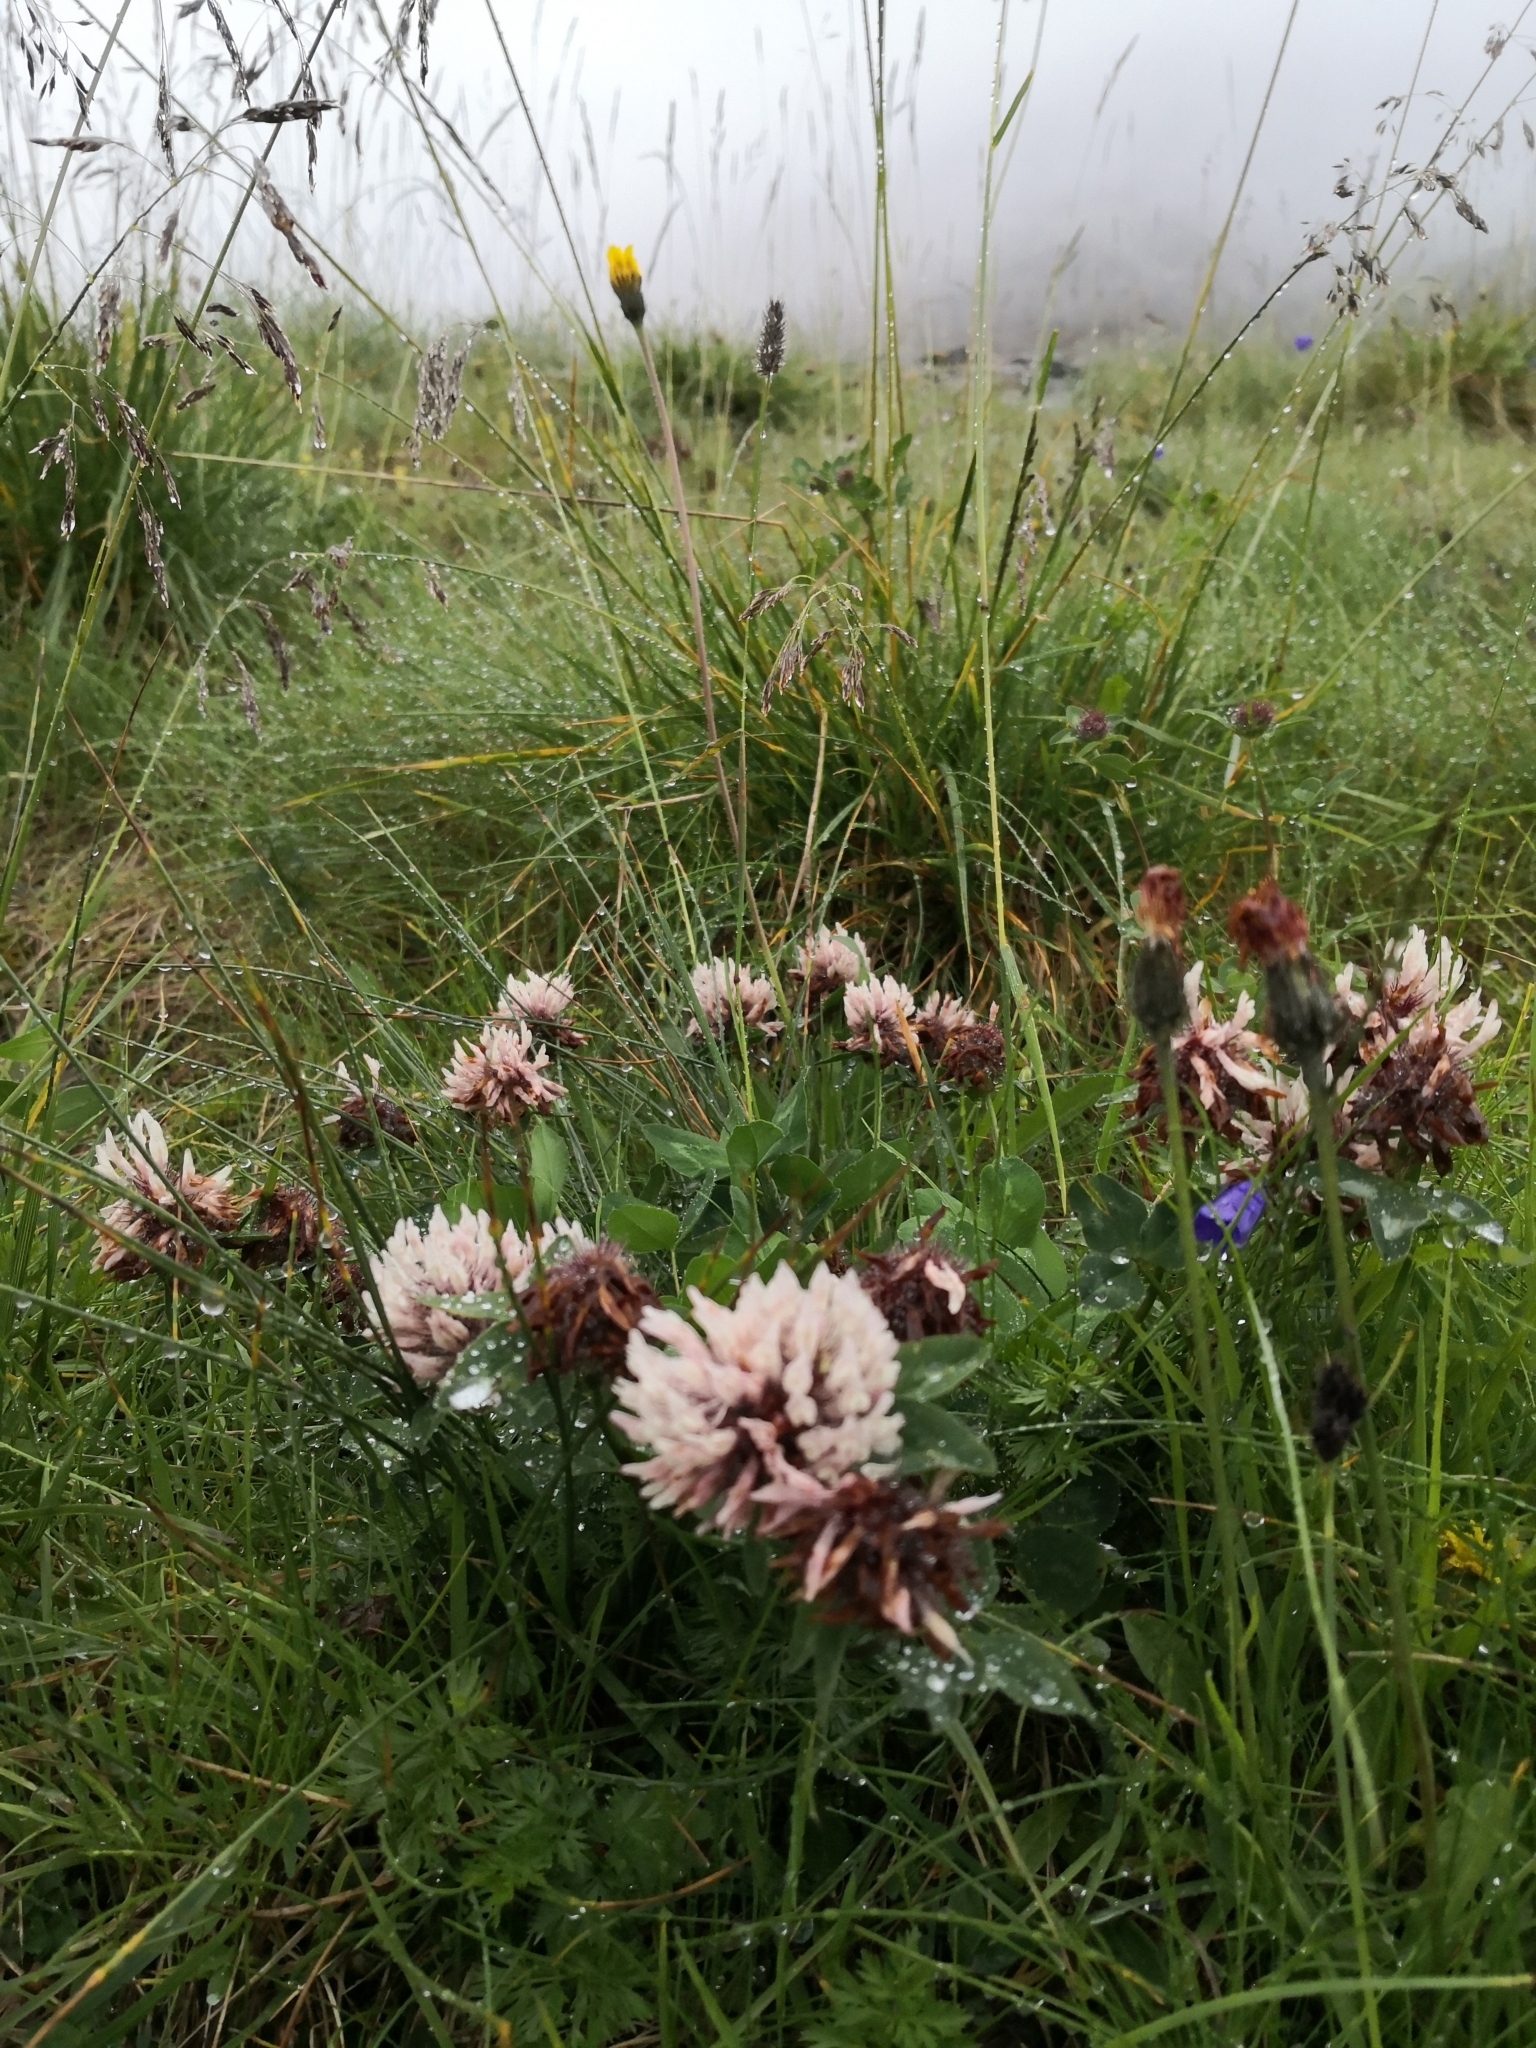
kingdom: Plantae
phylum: Tracheophyta
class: Magnoliopsida
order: Fabales
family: Fabaceae
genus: Trifolium
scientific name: Trifolium pratense
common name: Red clover
